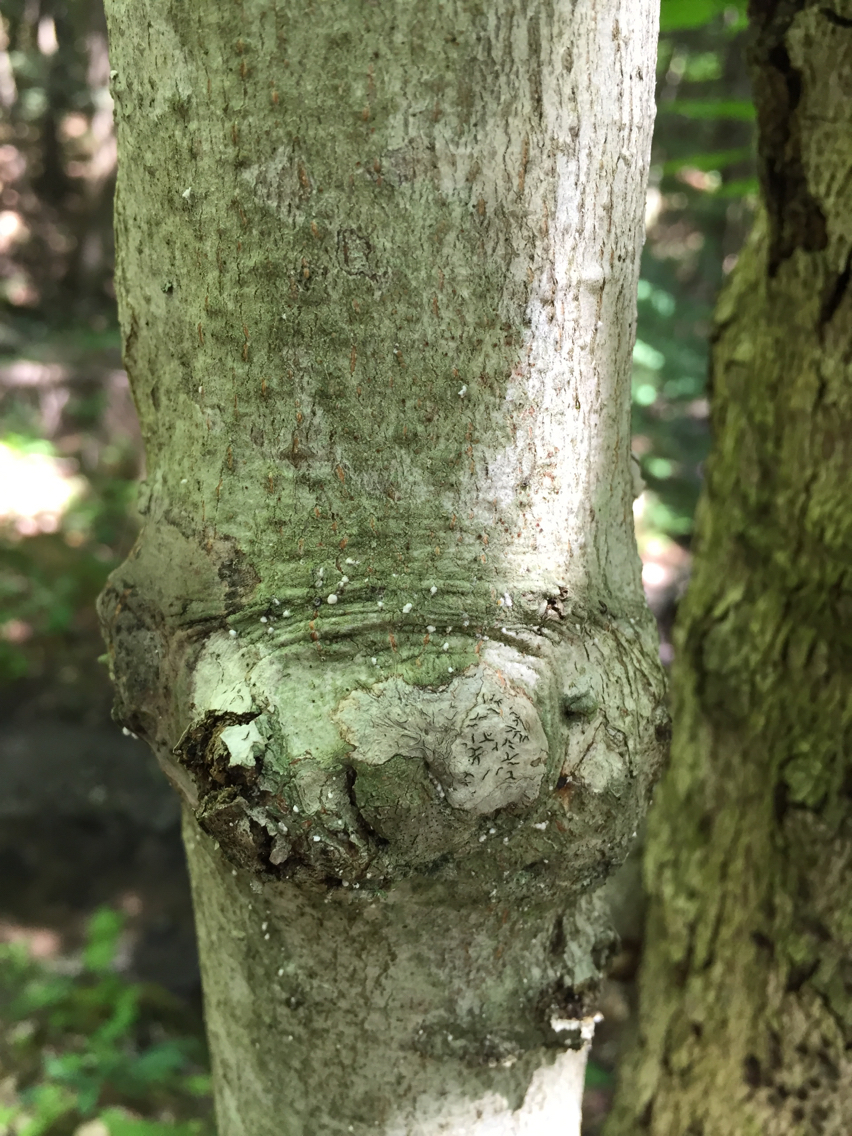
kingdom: Animalia
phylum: Arthropoda
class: Insecta
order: Hemiptera
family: Eriococcidae
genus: Cryptococcus
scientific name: Cryptococcus fagisuga
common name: Beech scale
